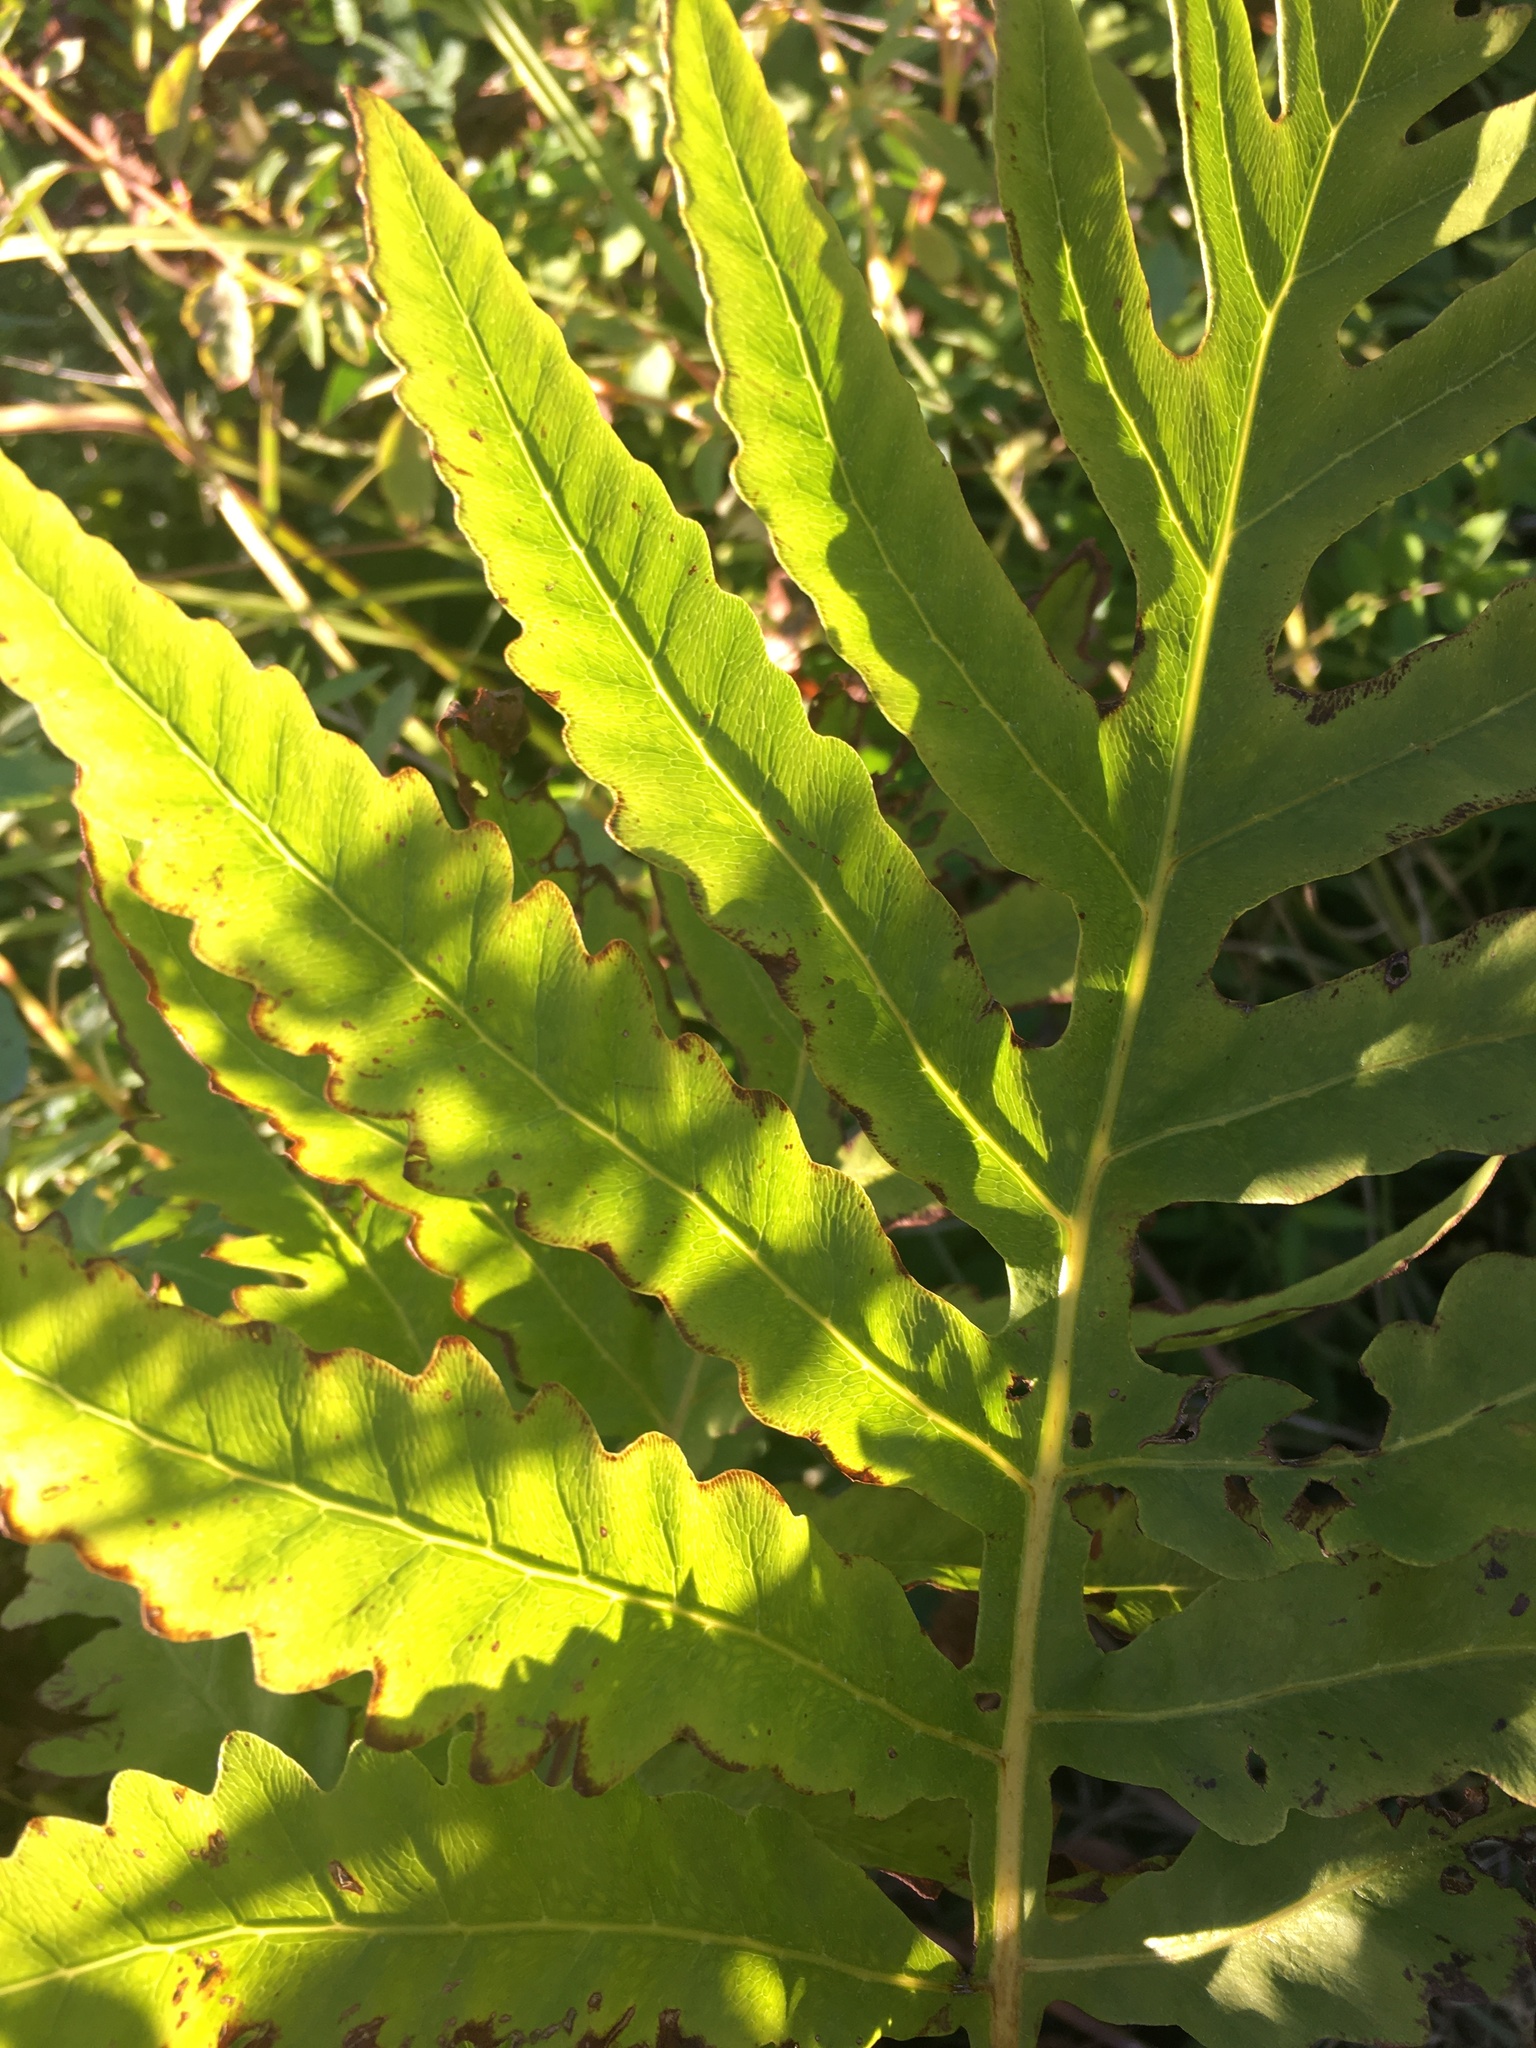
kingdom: Plantae
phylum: Tracheophyta
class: Polypodiopsida
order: Polypodiales
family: Onocleaceae
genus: Onoclea
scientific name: Onoclea sensibilis
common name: Sensitive fern
